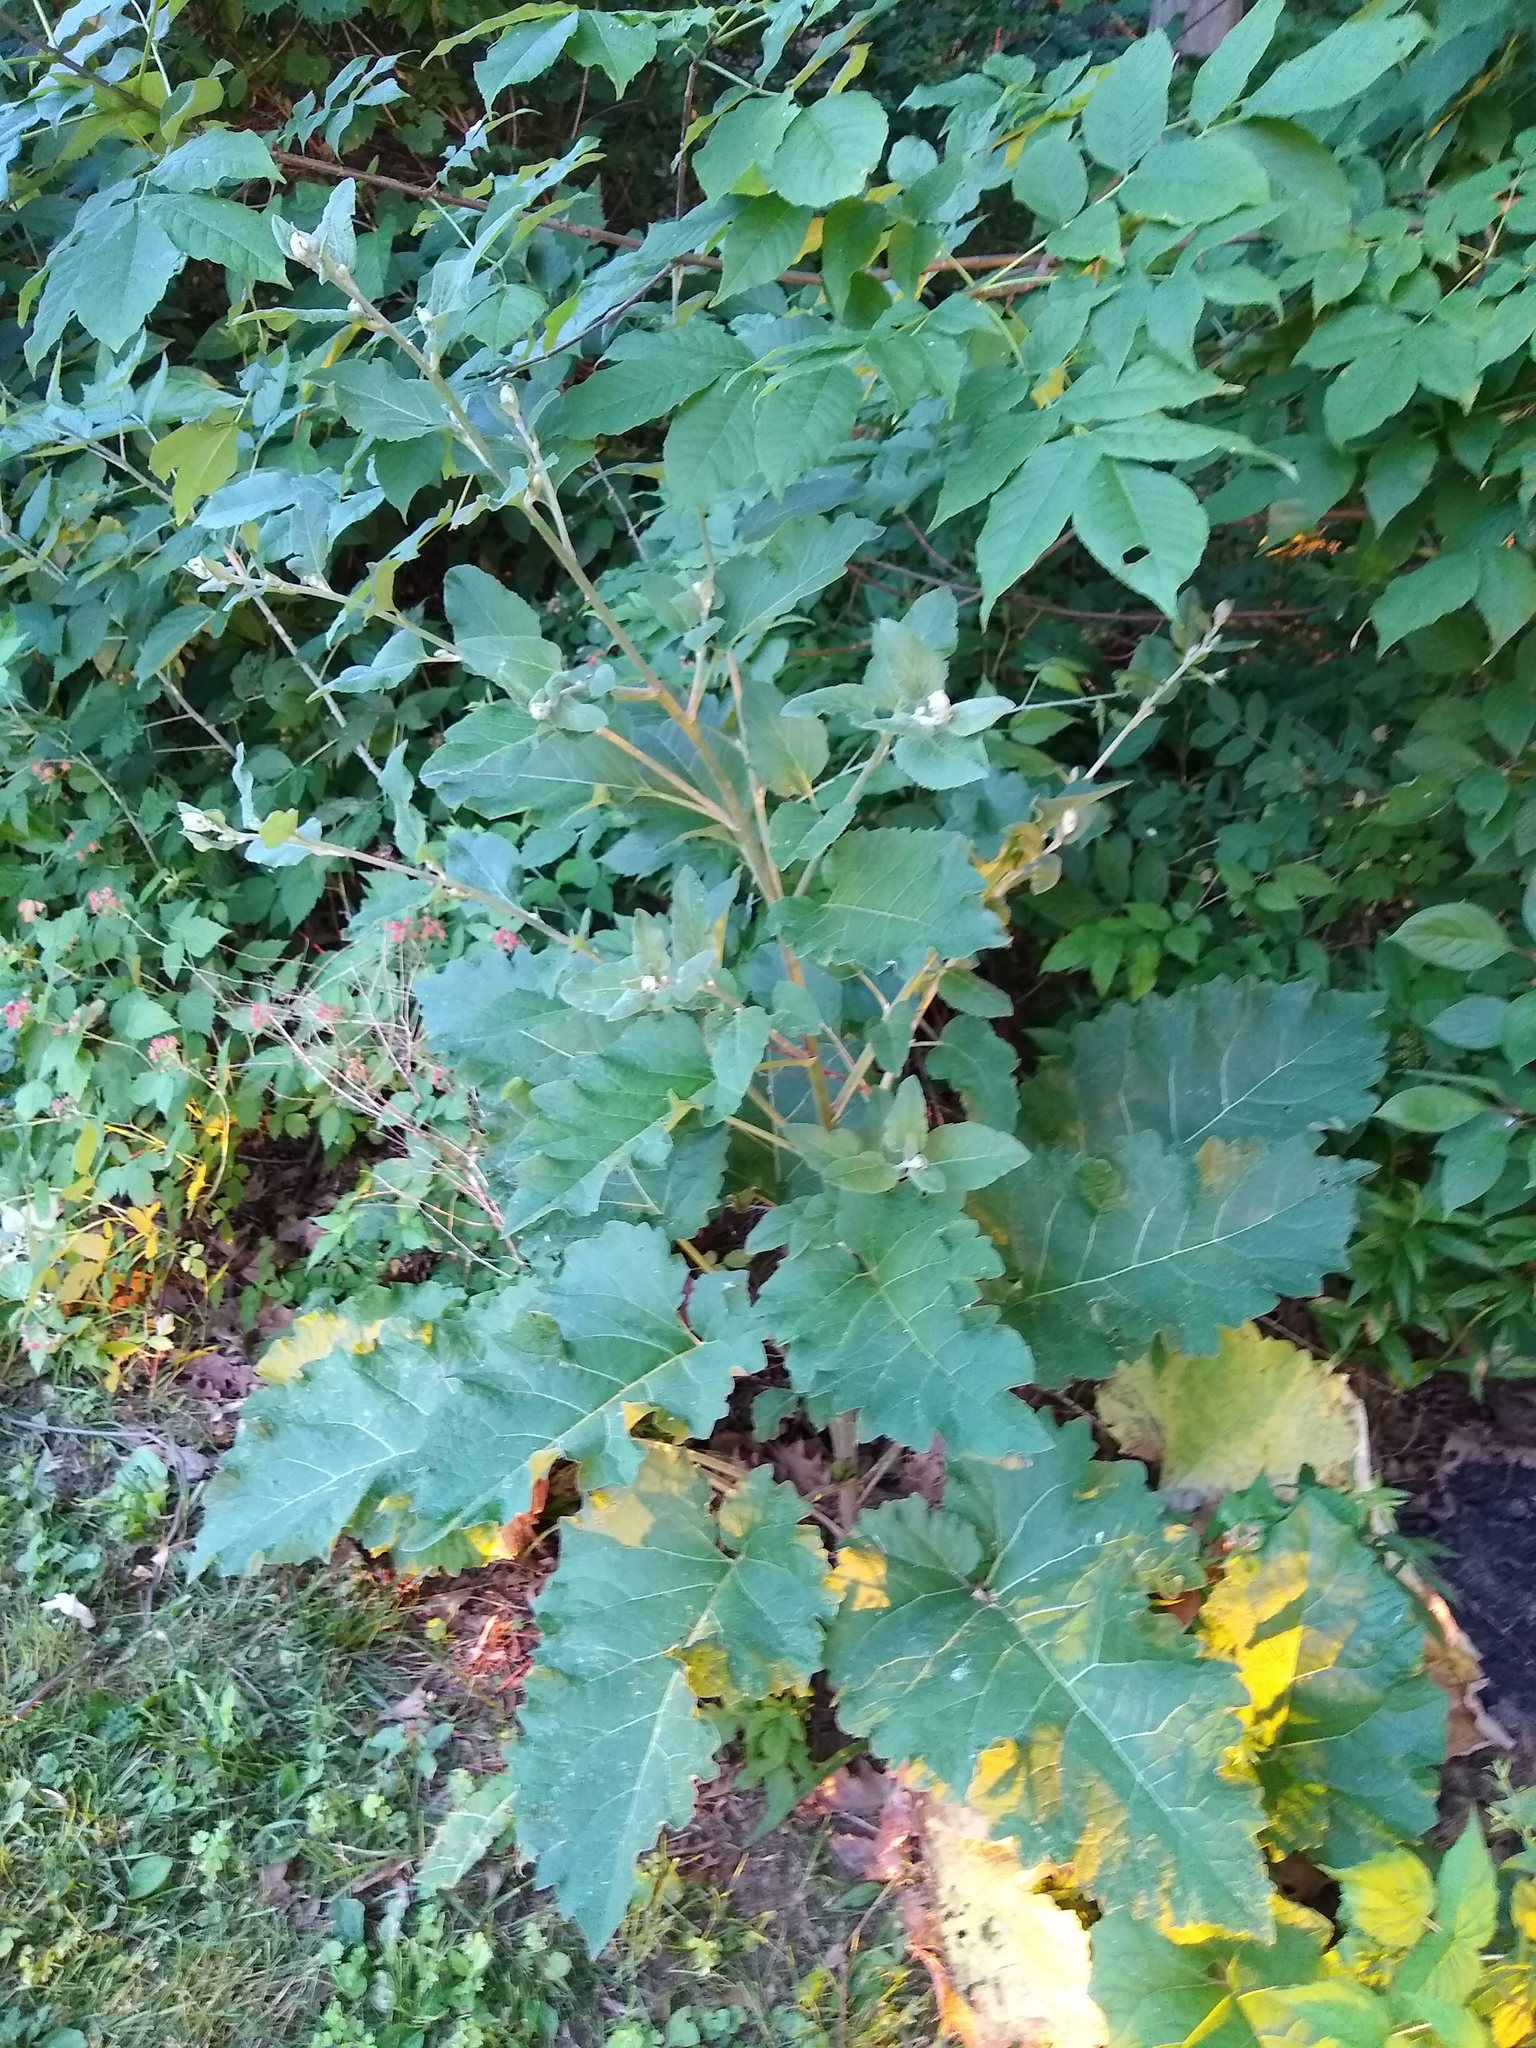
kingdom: Plantae
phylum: Tracheophyta
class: Magnoliopsida
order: Asterales
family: Asteraceae
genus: Arctium
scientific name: Arctium
